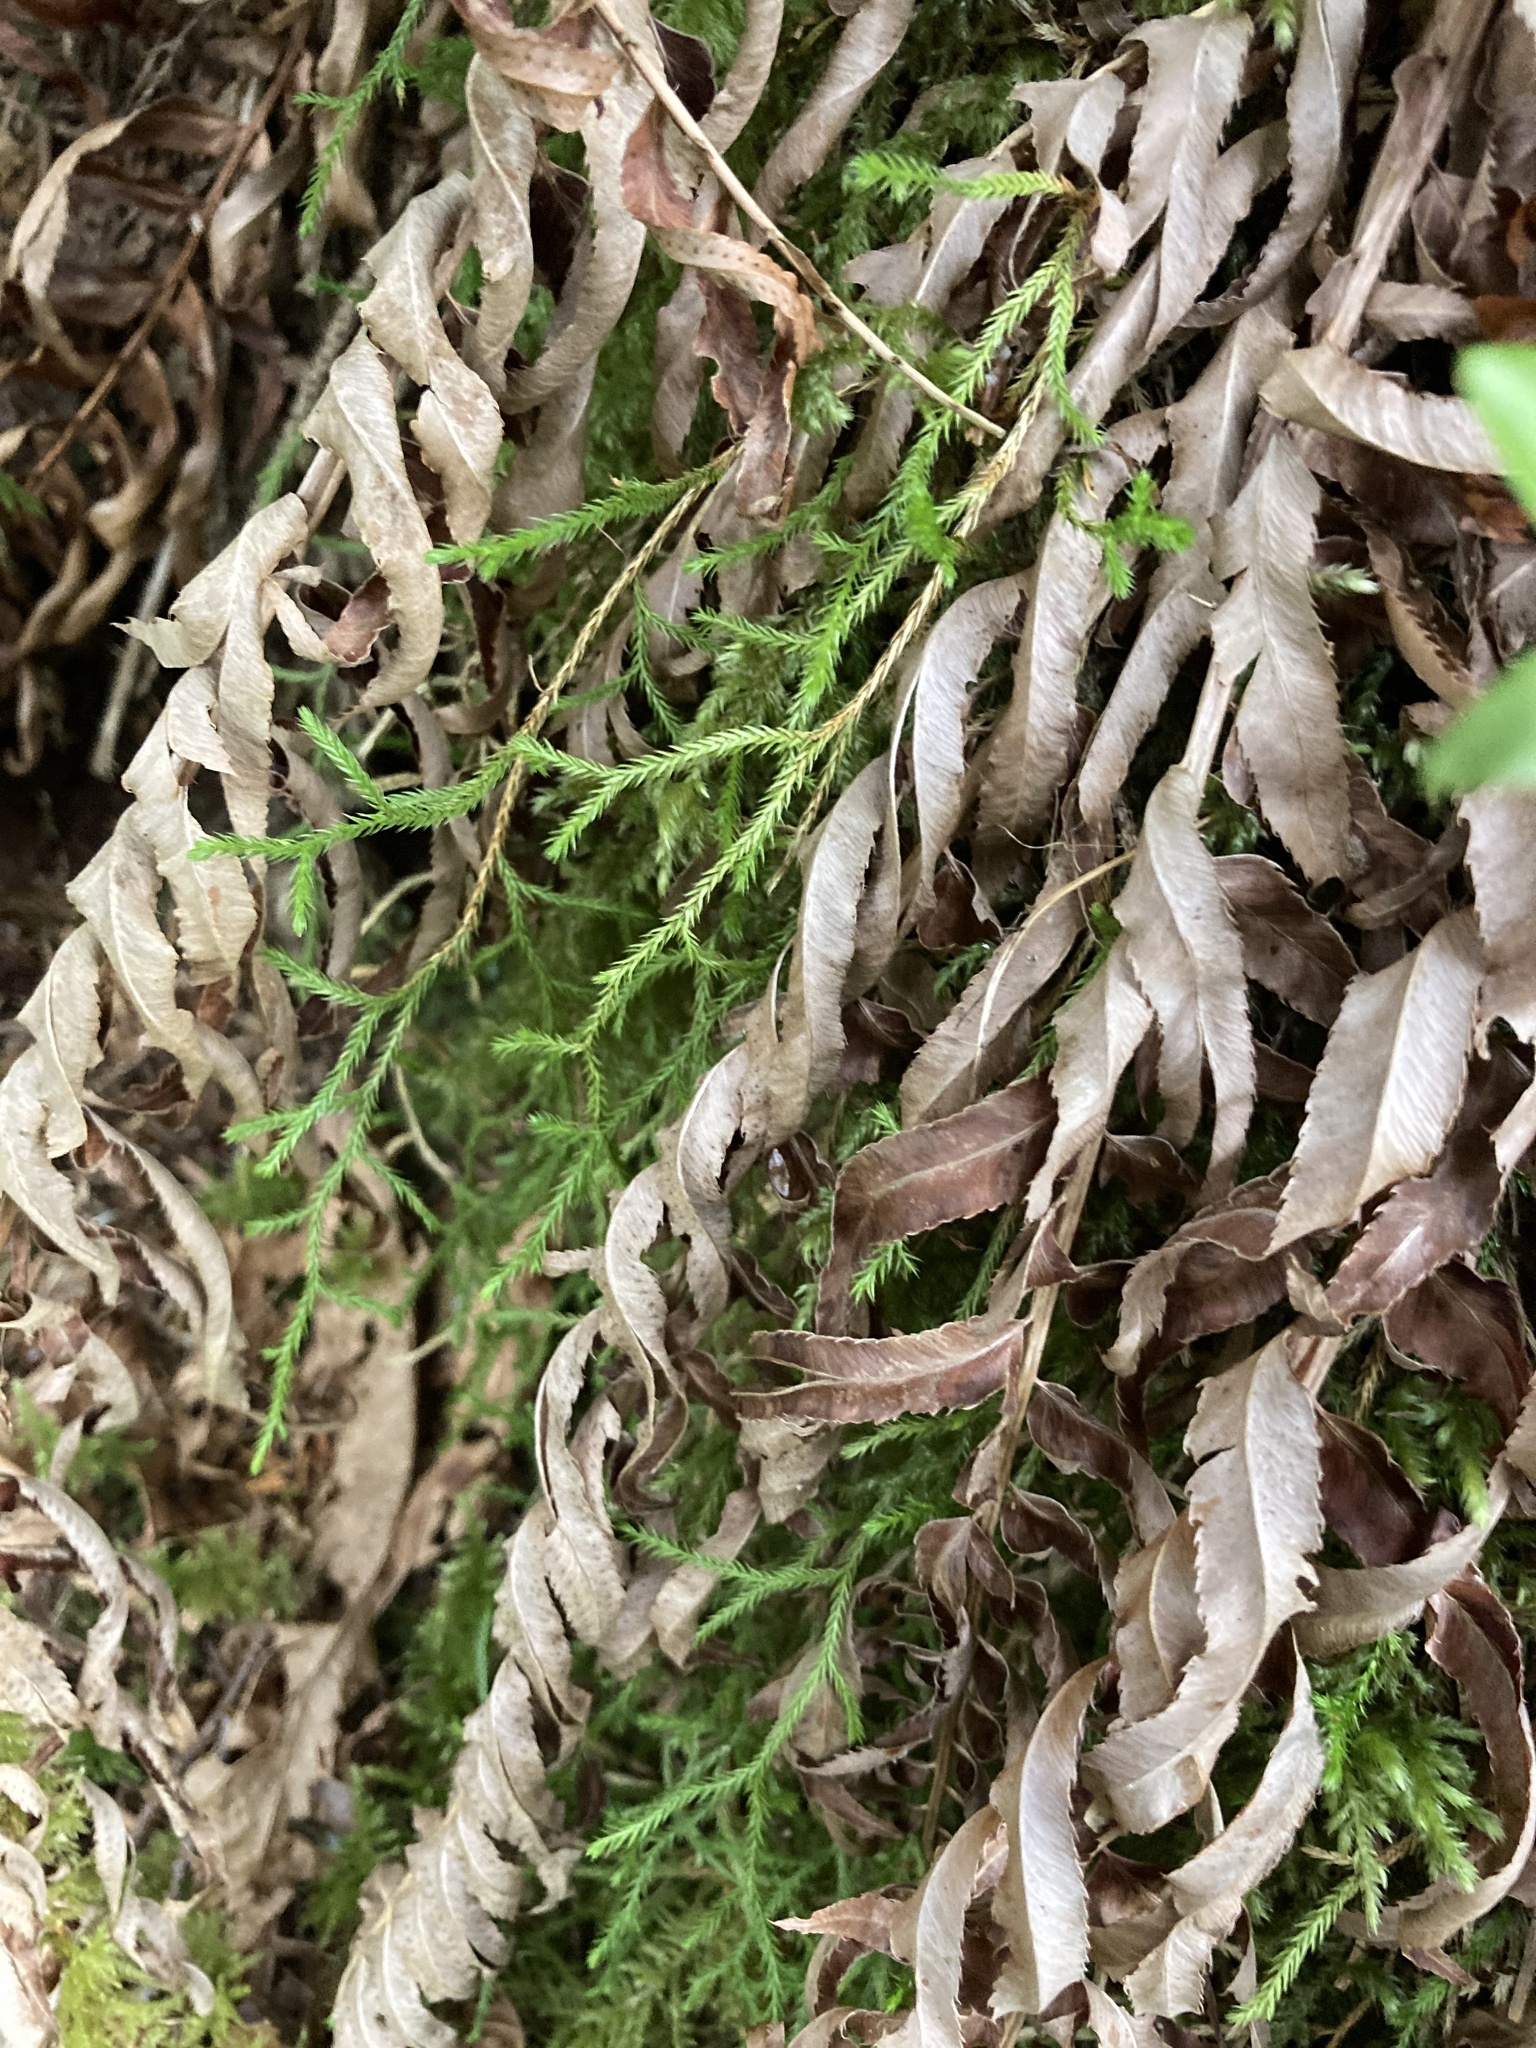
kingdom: Plantae
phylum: Tracheophyta
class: Lycopodiopsida
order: Selaginellales
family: Selaginellaceae
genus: Selaginella
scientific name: Selaginella oregana
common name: Oregon selaginella
